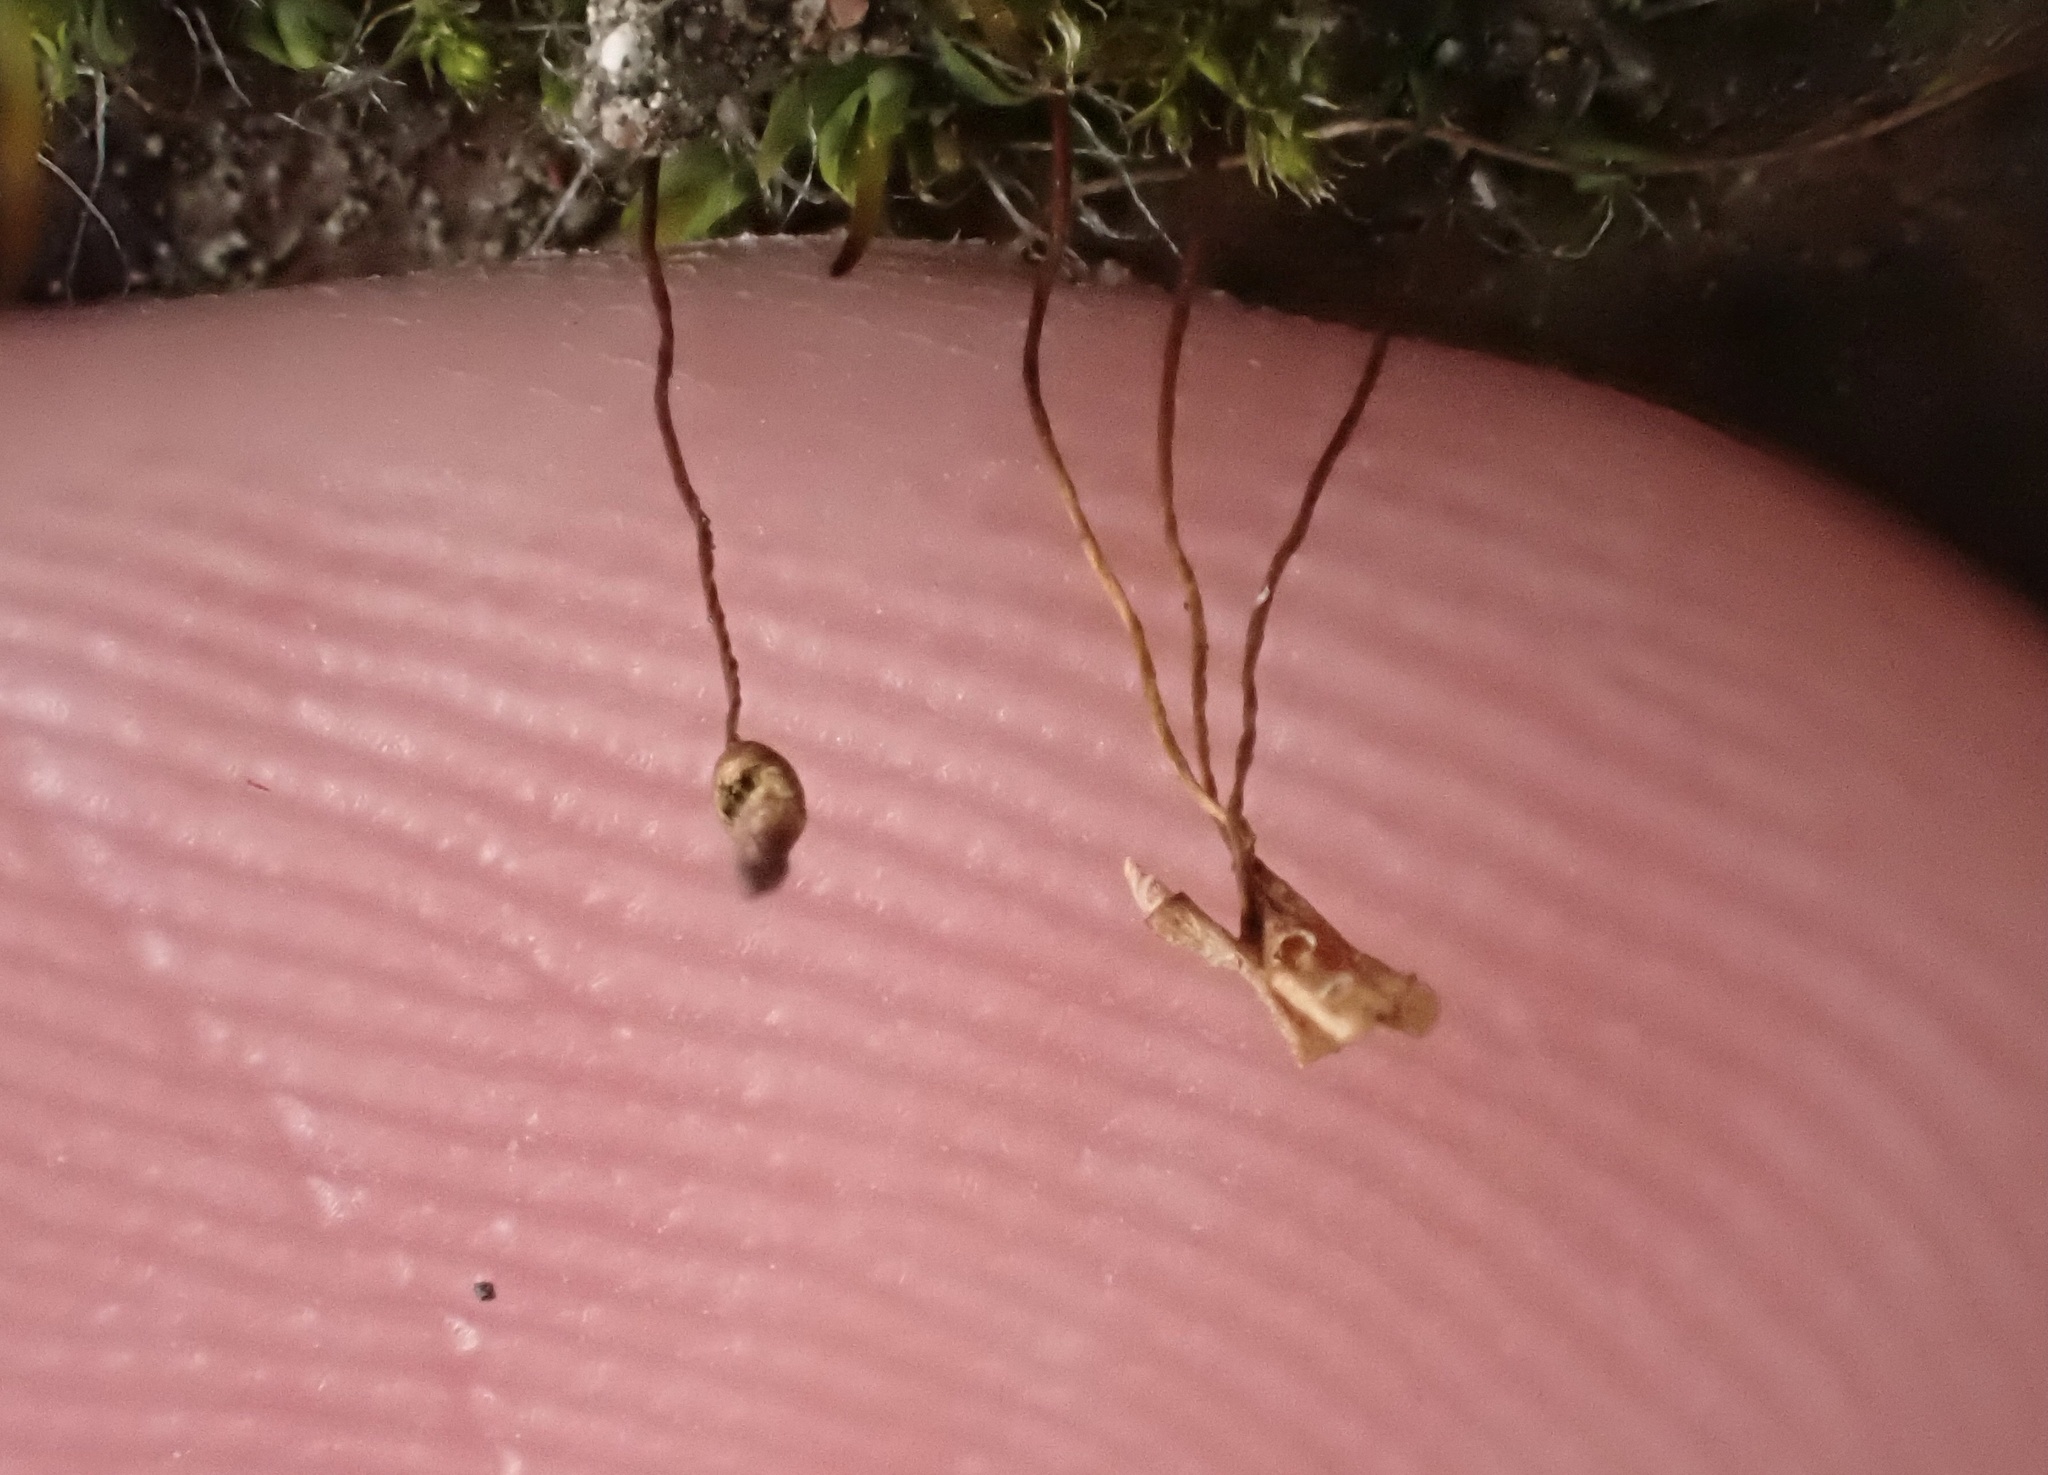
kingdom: Plantae
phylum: Bryophyta
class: Bryopsida
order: Pottiales
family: Pottiaceae
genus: Tortula
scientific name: Tortula muralis
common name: Wall screw-moss
